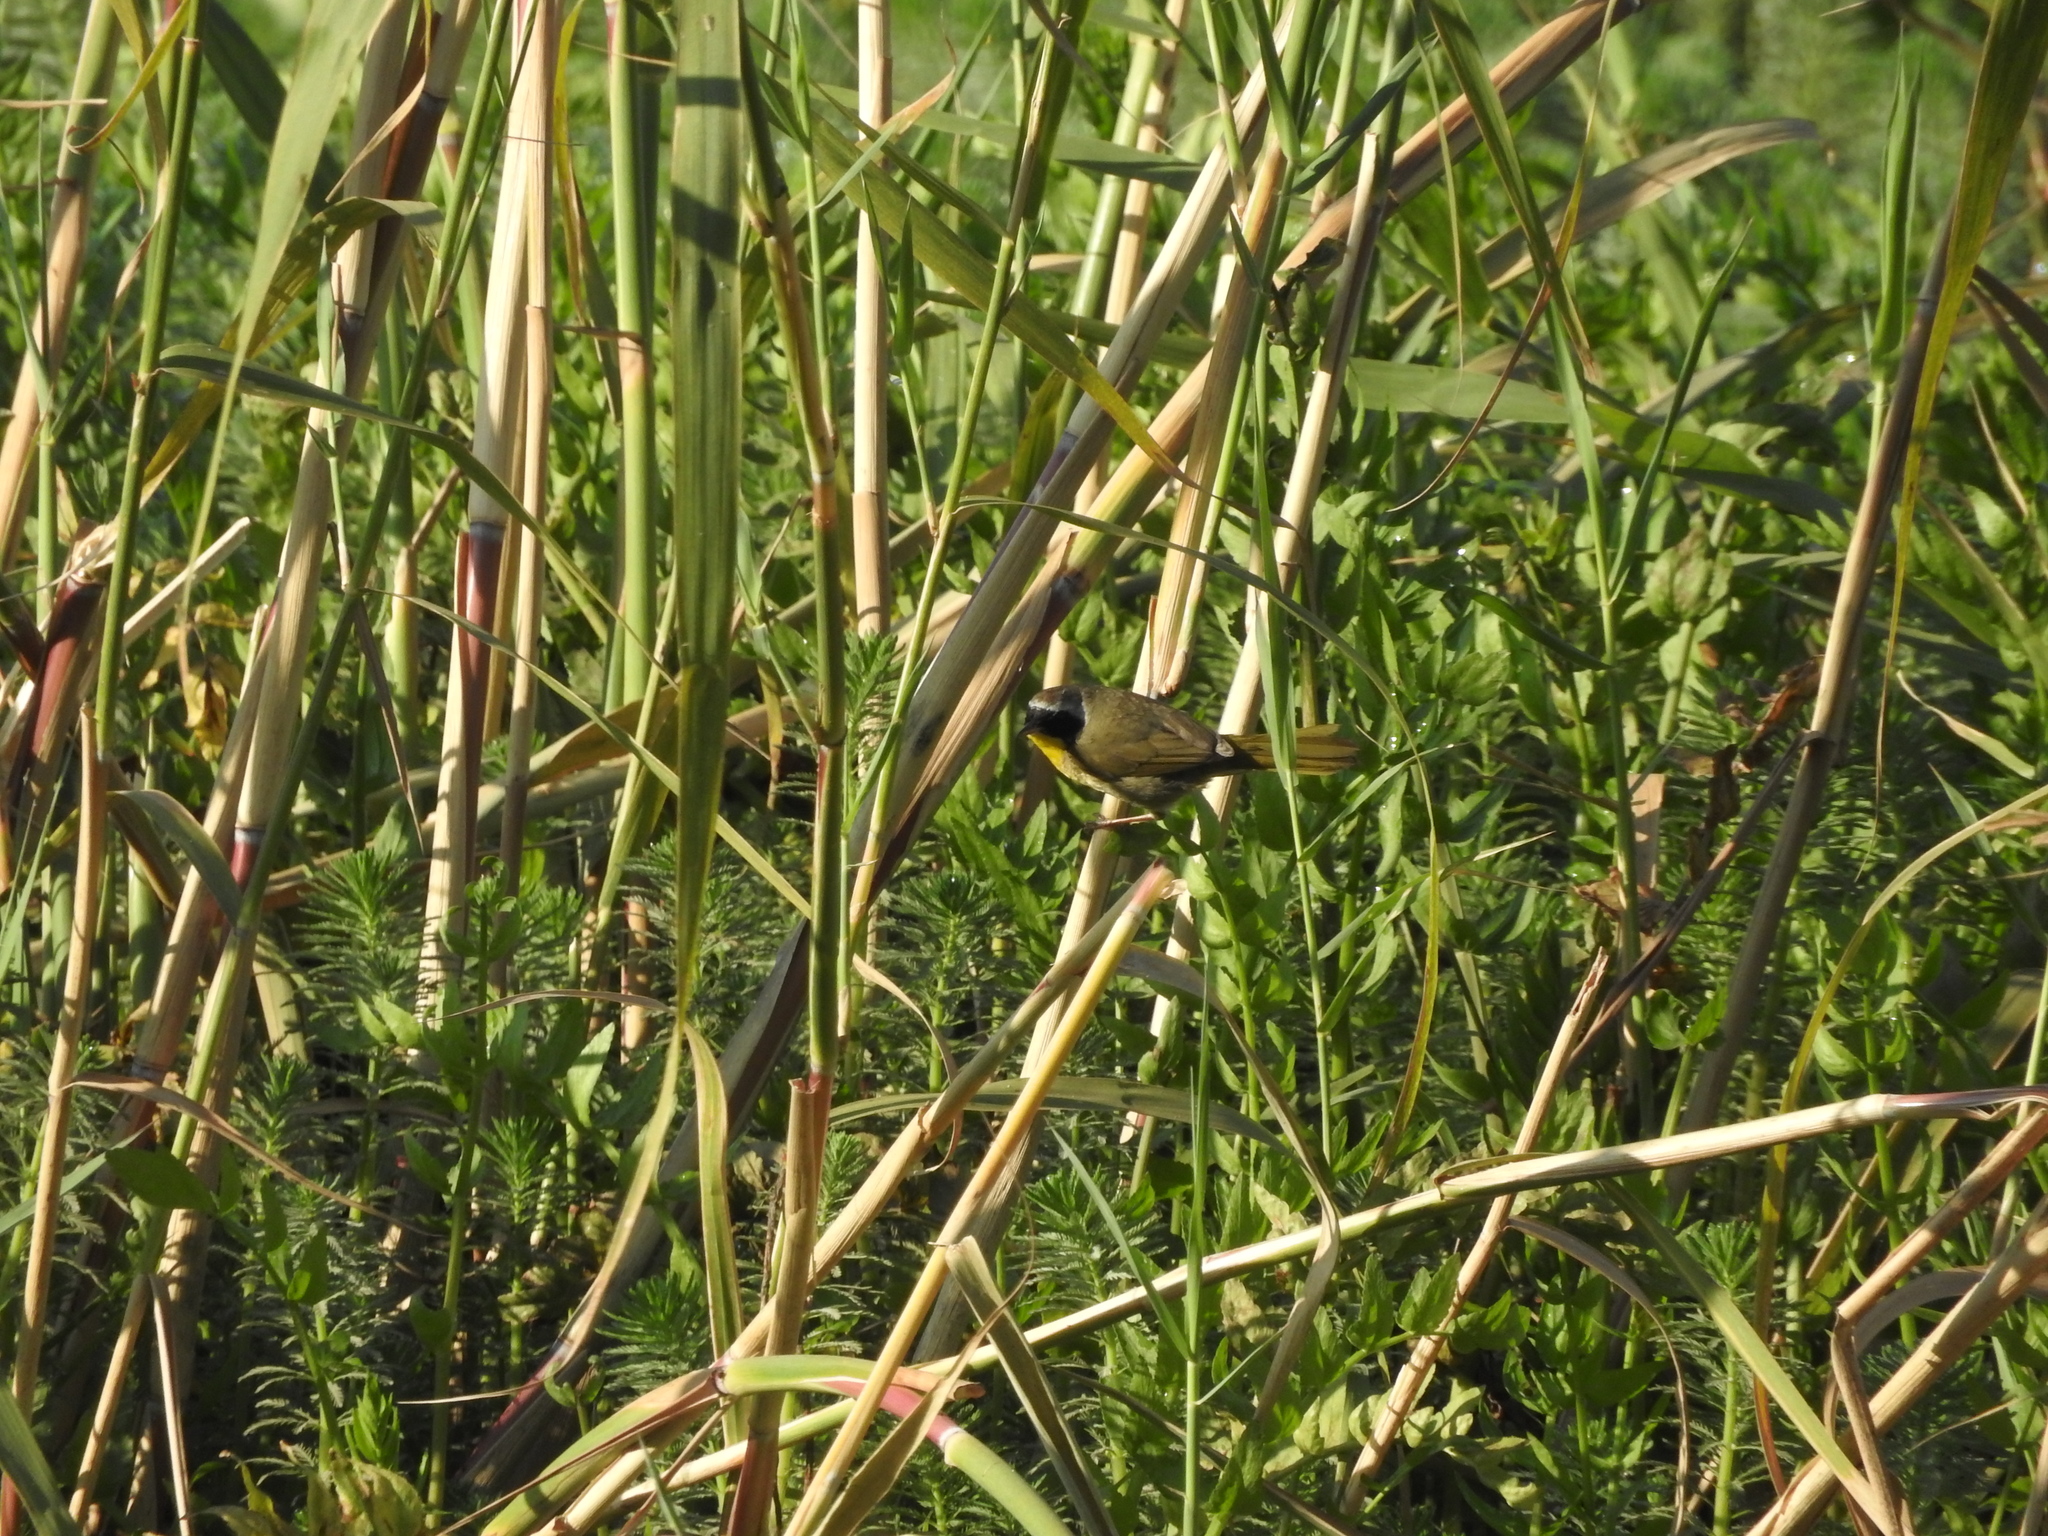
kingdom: Animalia
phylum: Chordata
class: Aves
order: Passeriformes
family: Parulidae
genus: Geothlypis
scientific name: Geothlypis trichas
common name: Common yellowthroat
